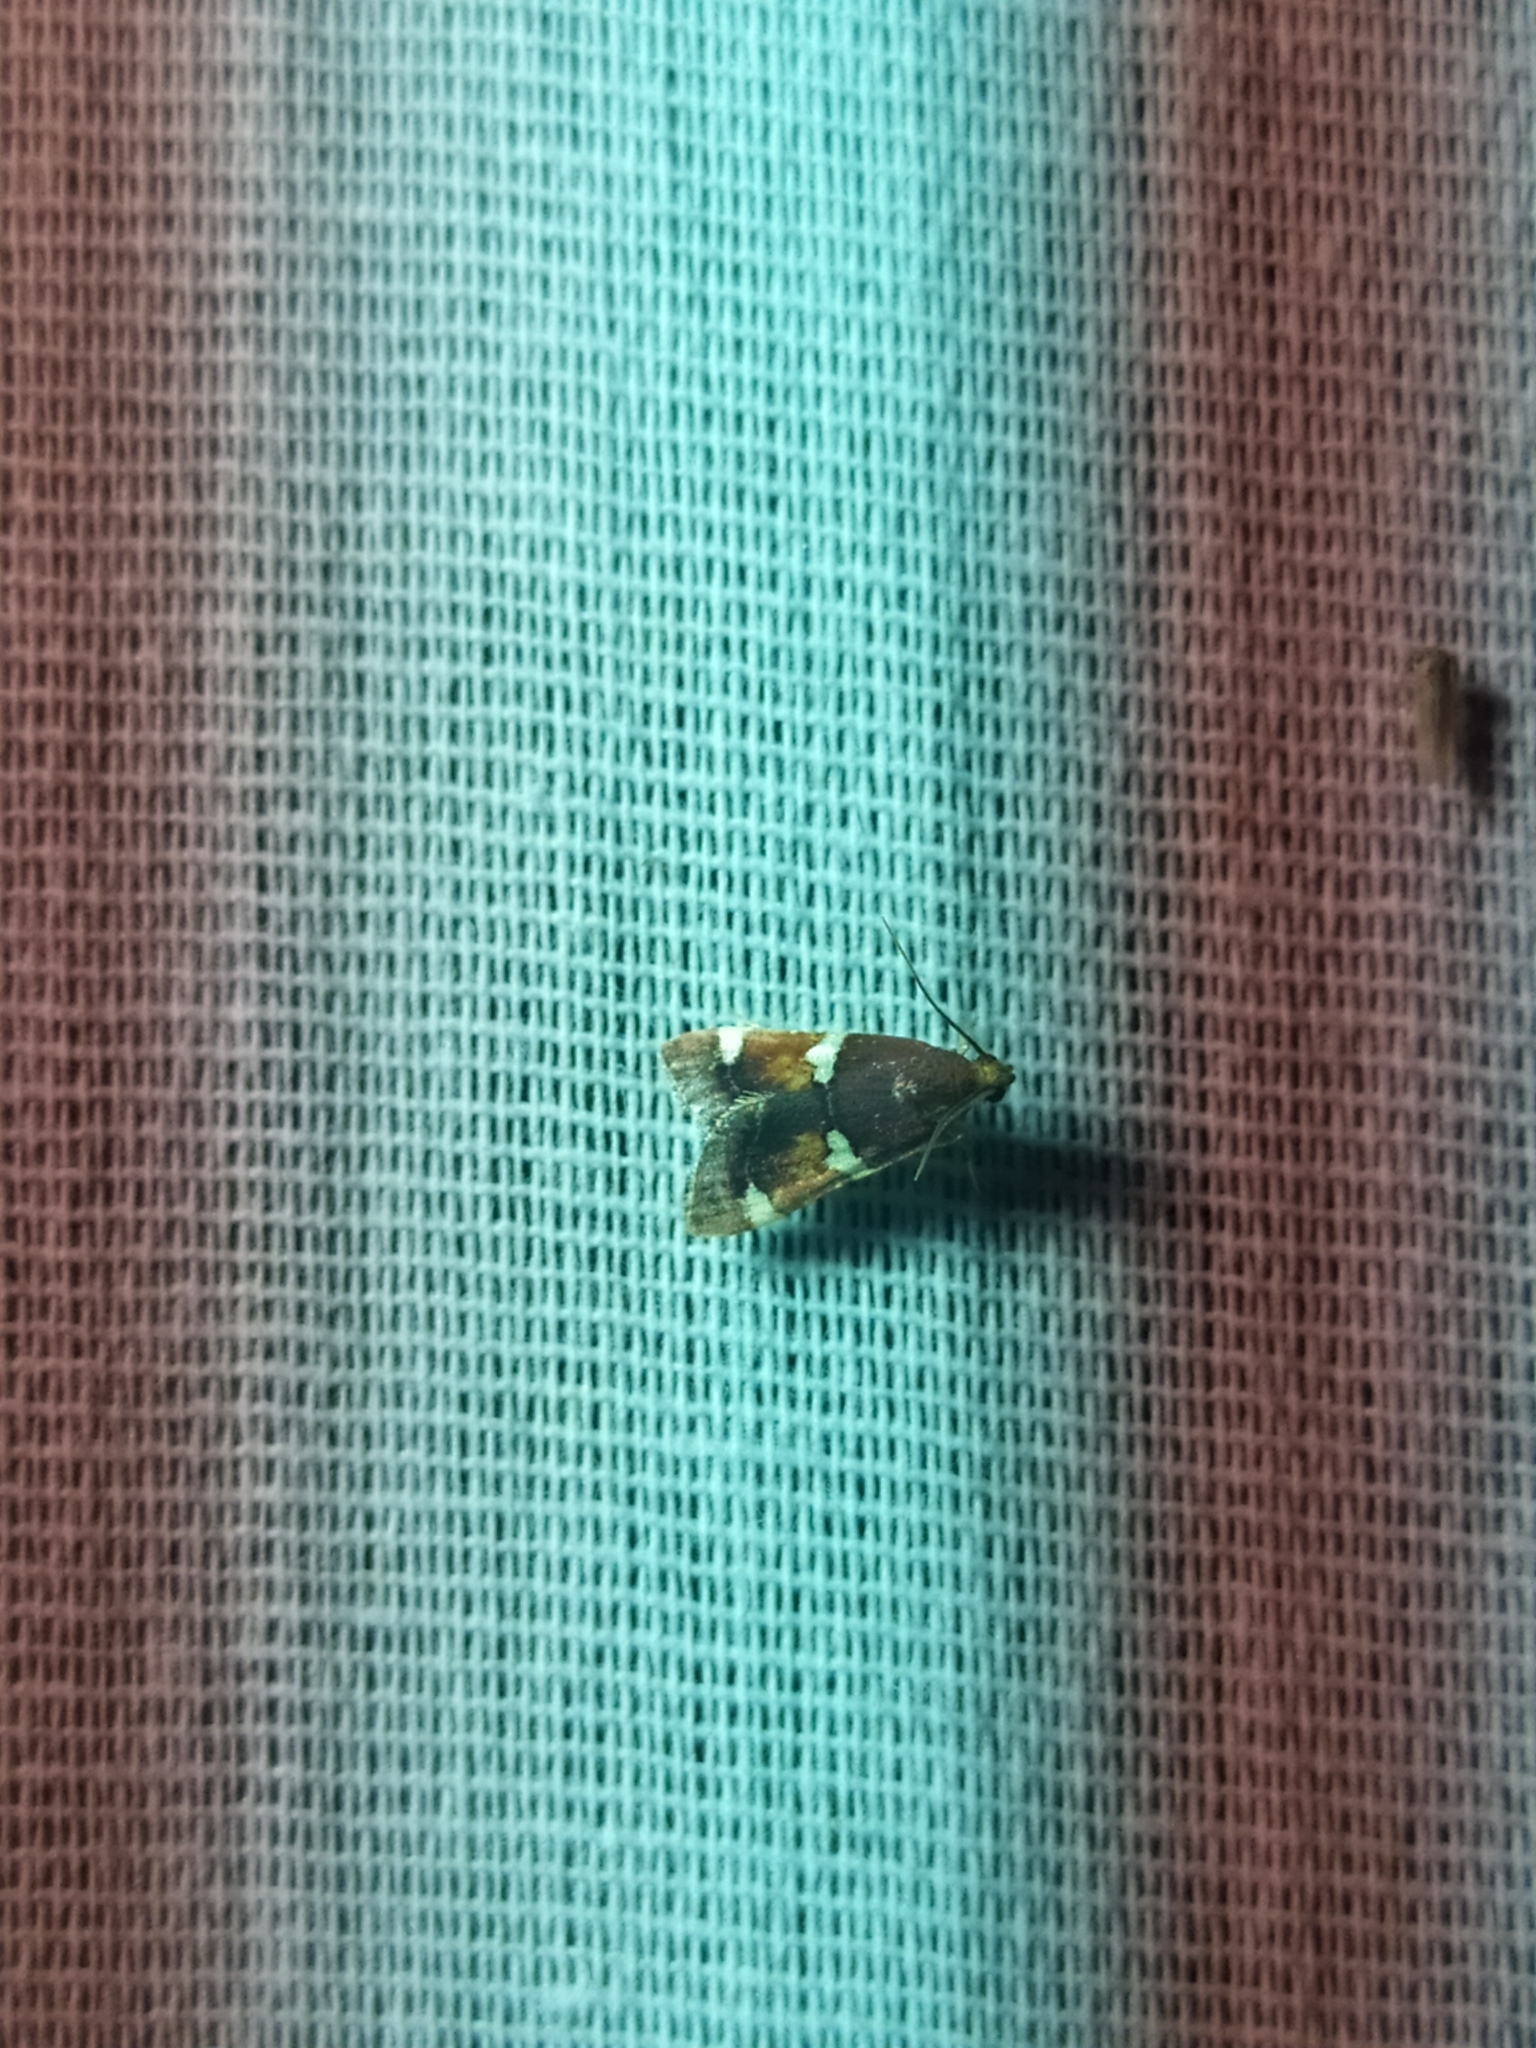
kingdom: Animalia
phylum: Arthropoda
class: Insecta
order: Lepidoptera
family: Pyralidae
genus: Pyralis
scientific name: Pyralis cardinalis
